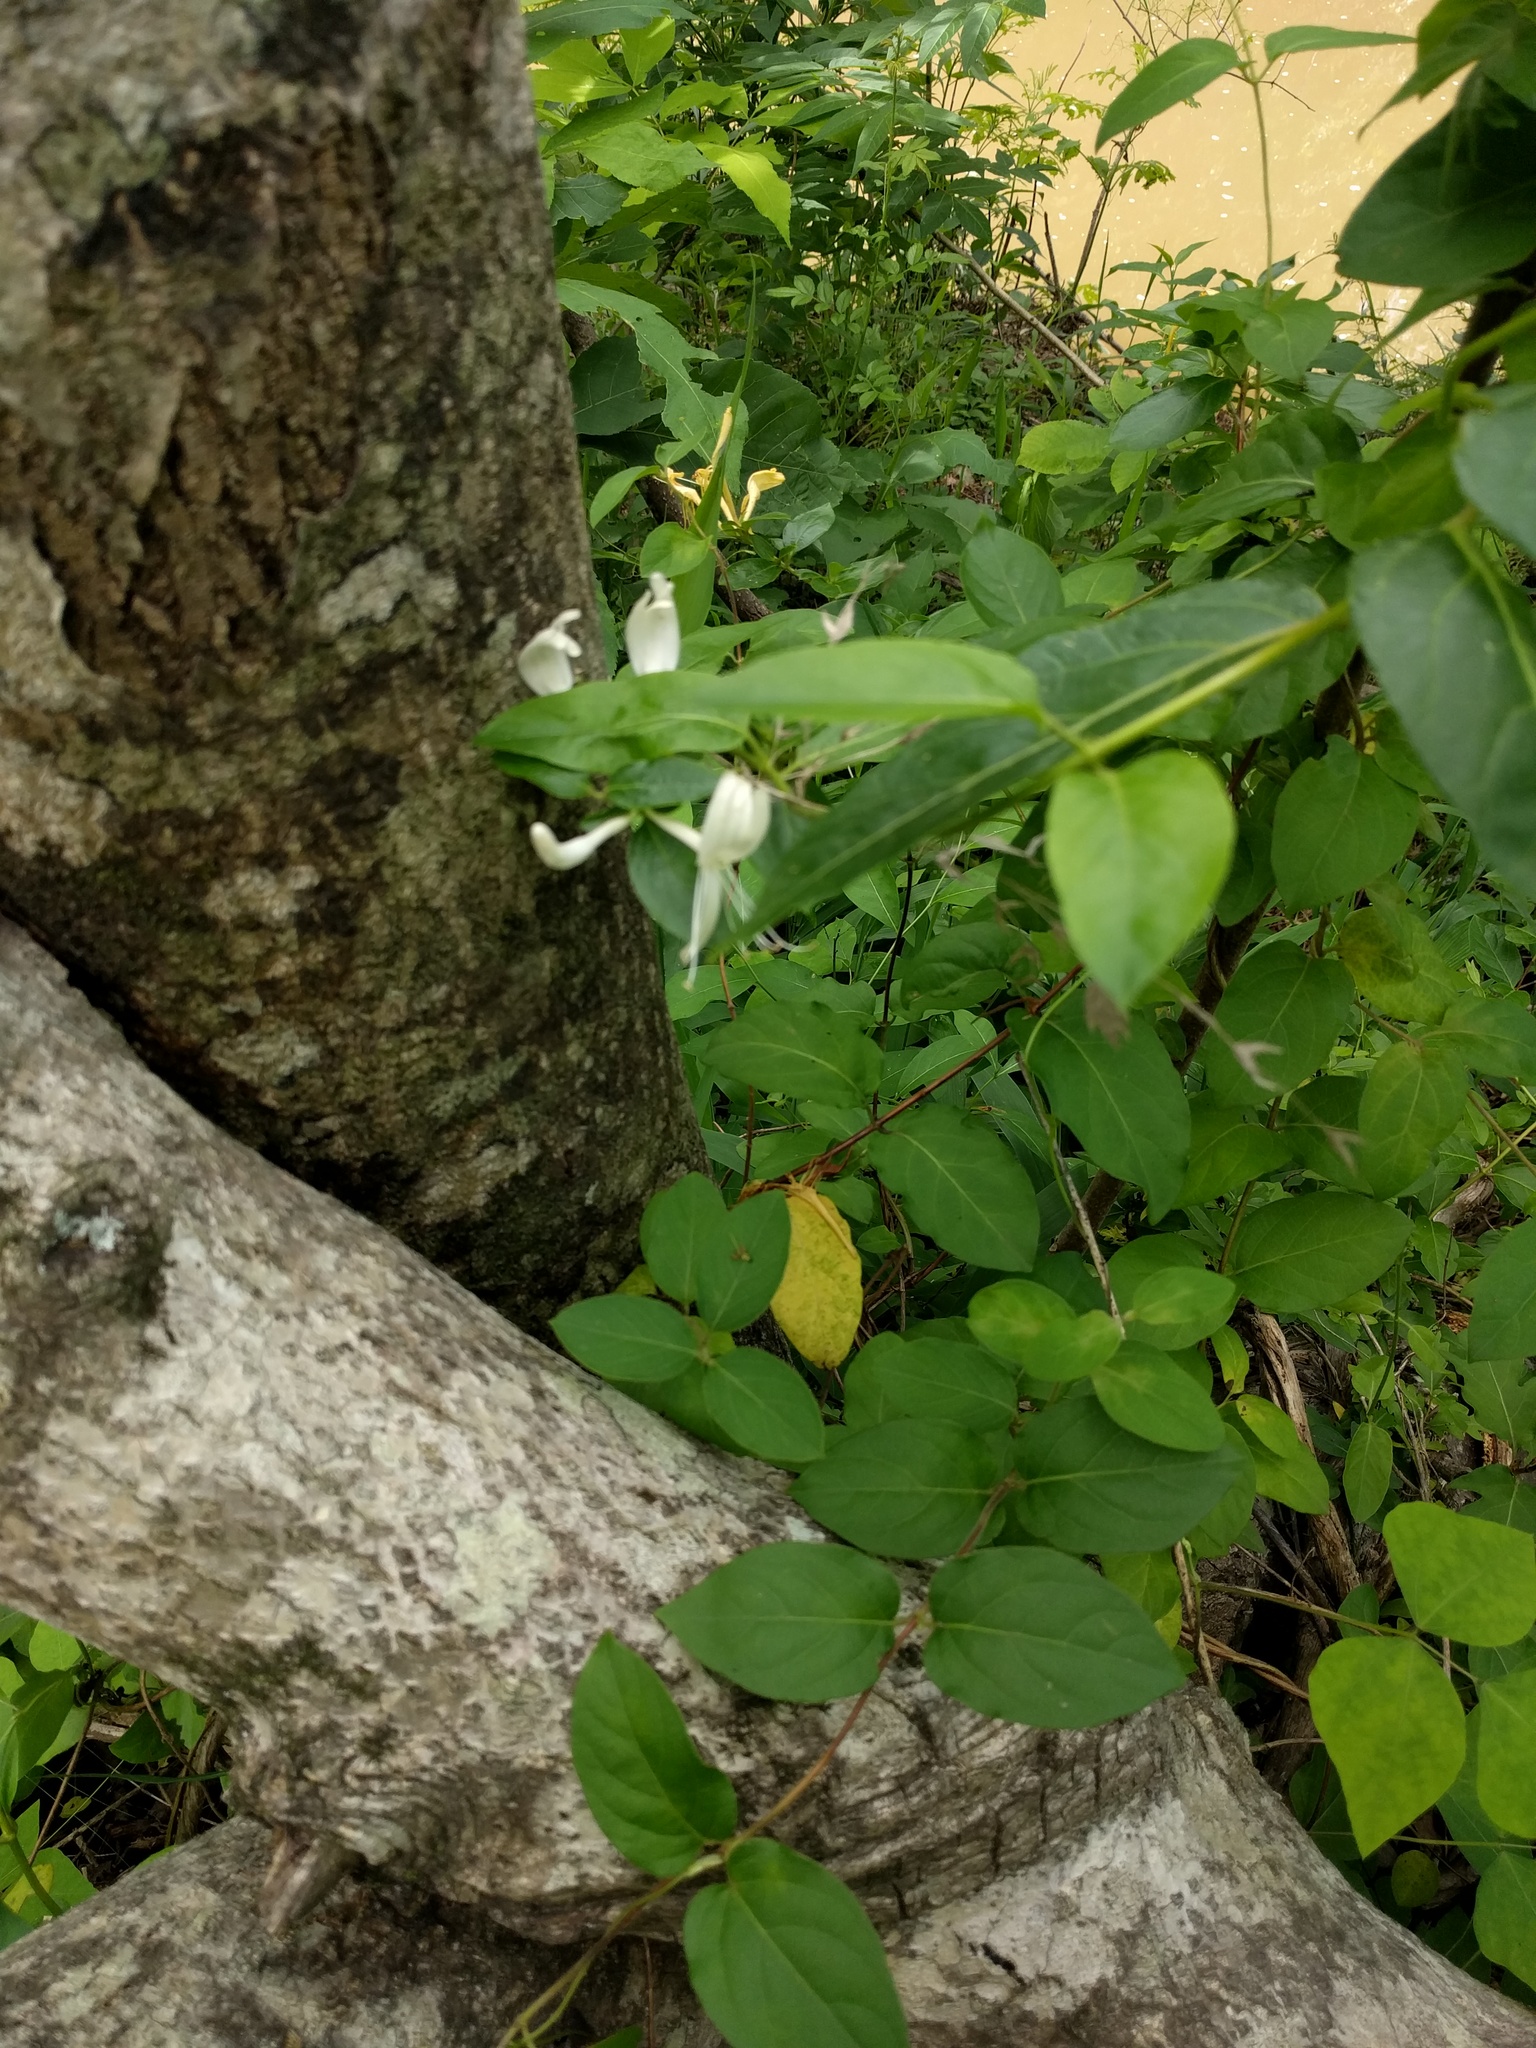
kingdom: Plantae
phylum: Tracheophyta
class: Magnoliopsida
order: Dipsacales
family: Caprifoliaceae
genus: Lonicera
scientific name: Lonicera japonica
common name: Japanese honeysuckle
